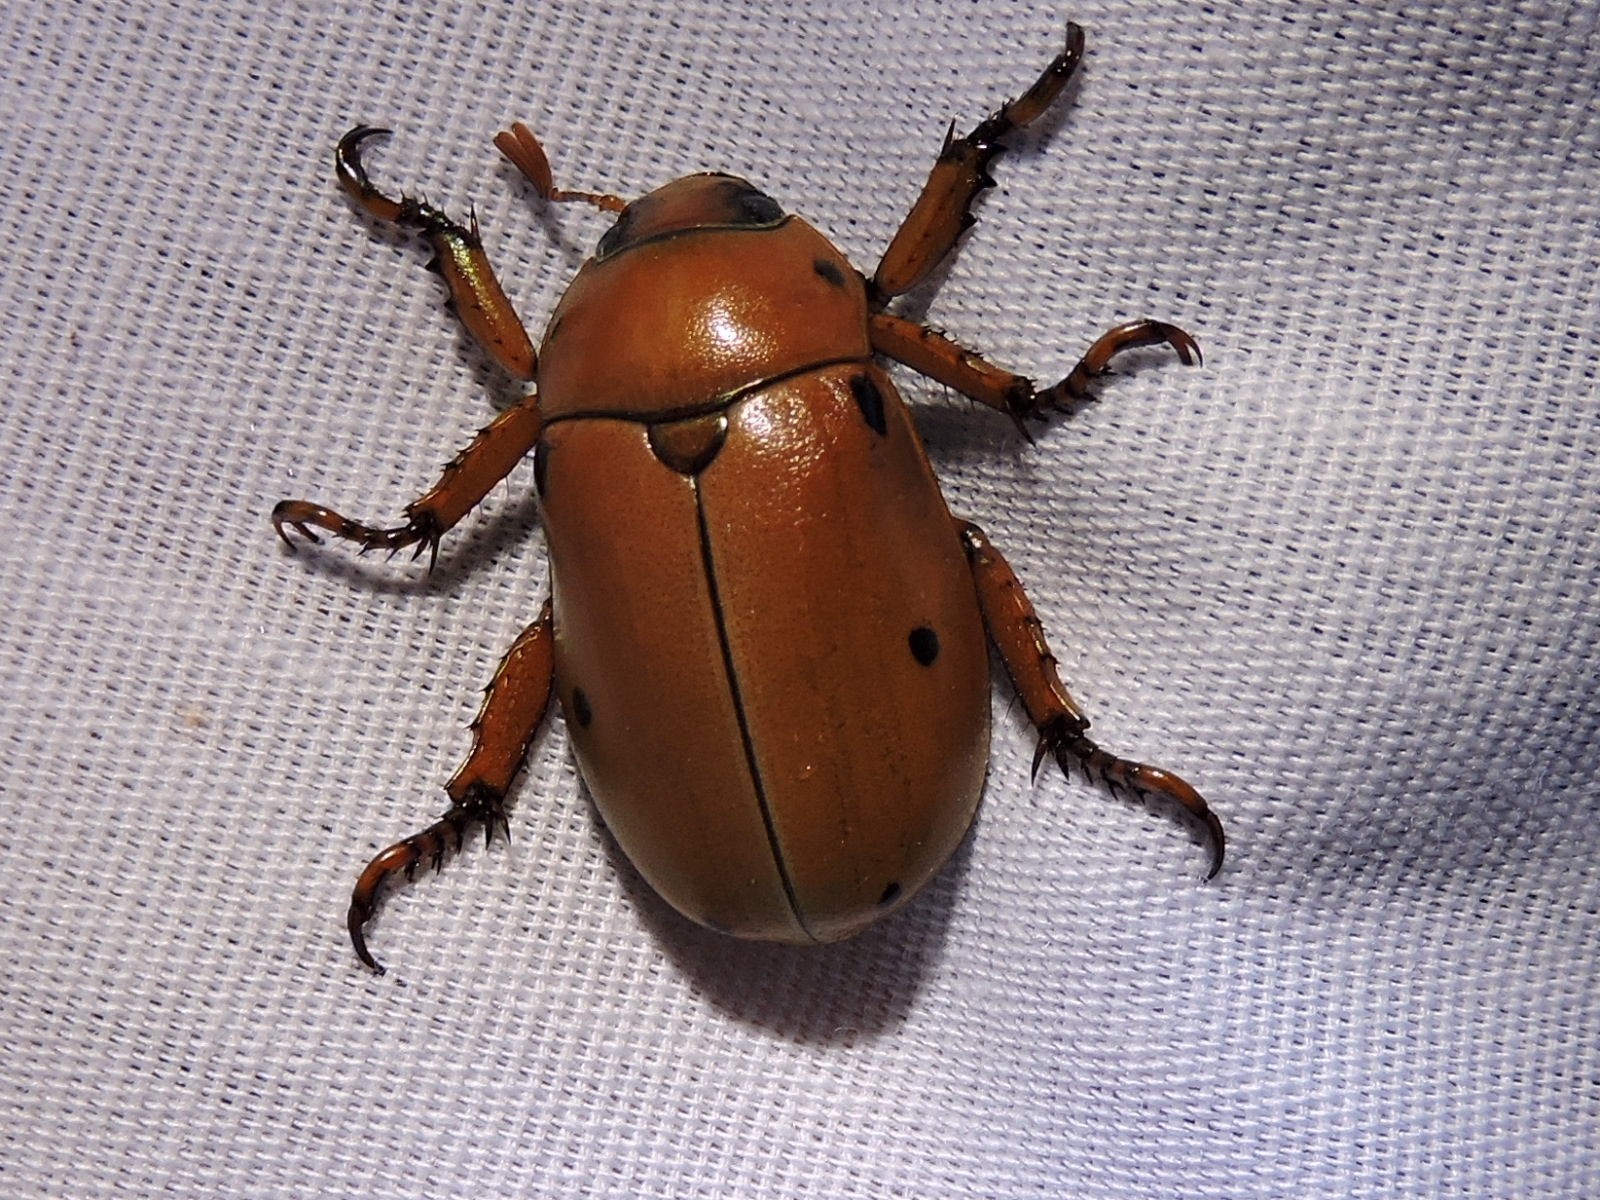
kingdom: Animalia
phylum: Arthropoda
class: Insecta
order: Coleoptera
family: Scarabaeidae
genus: Pelidnota
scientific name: Pelidnota punctata
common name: Grapevine beetle
